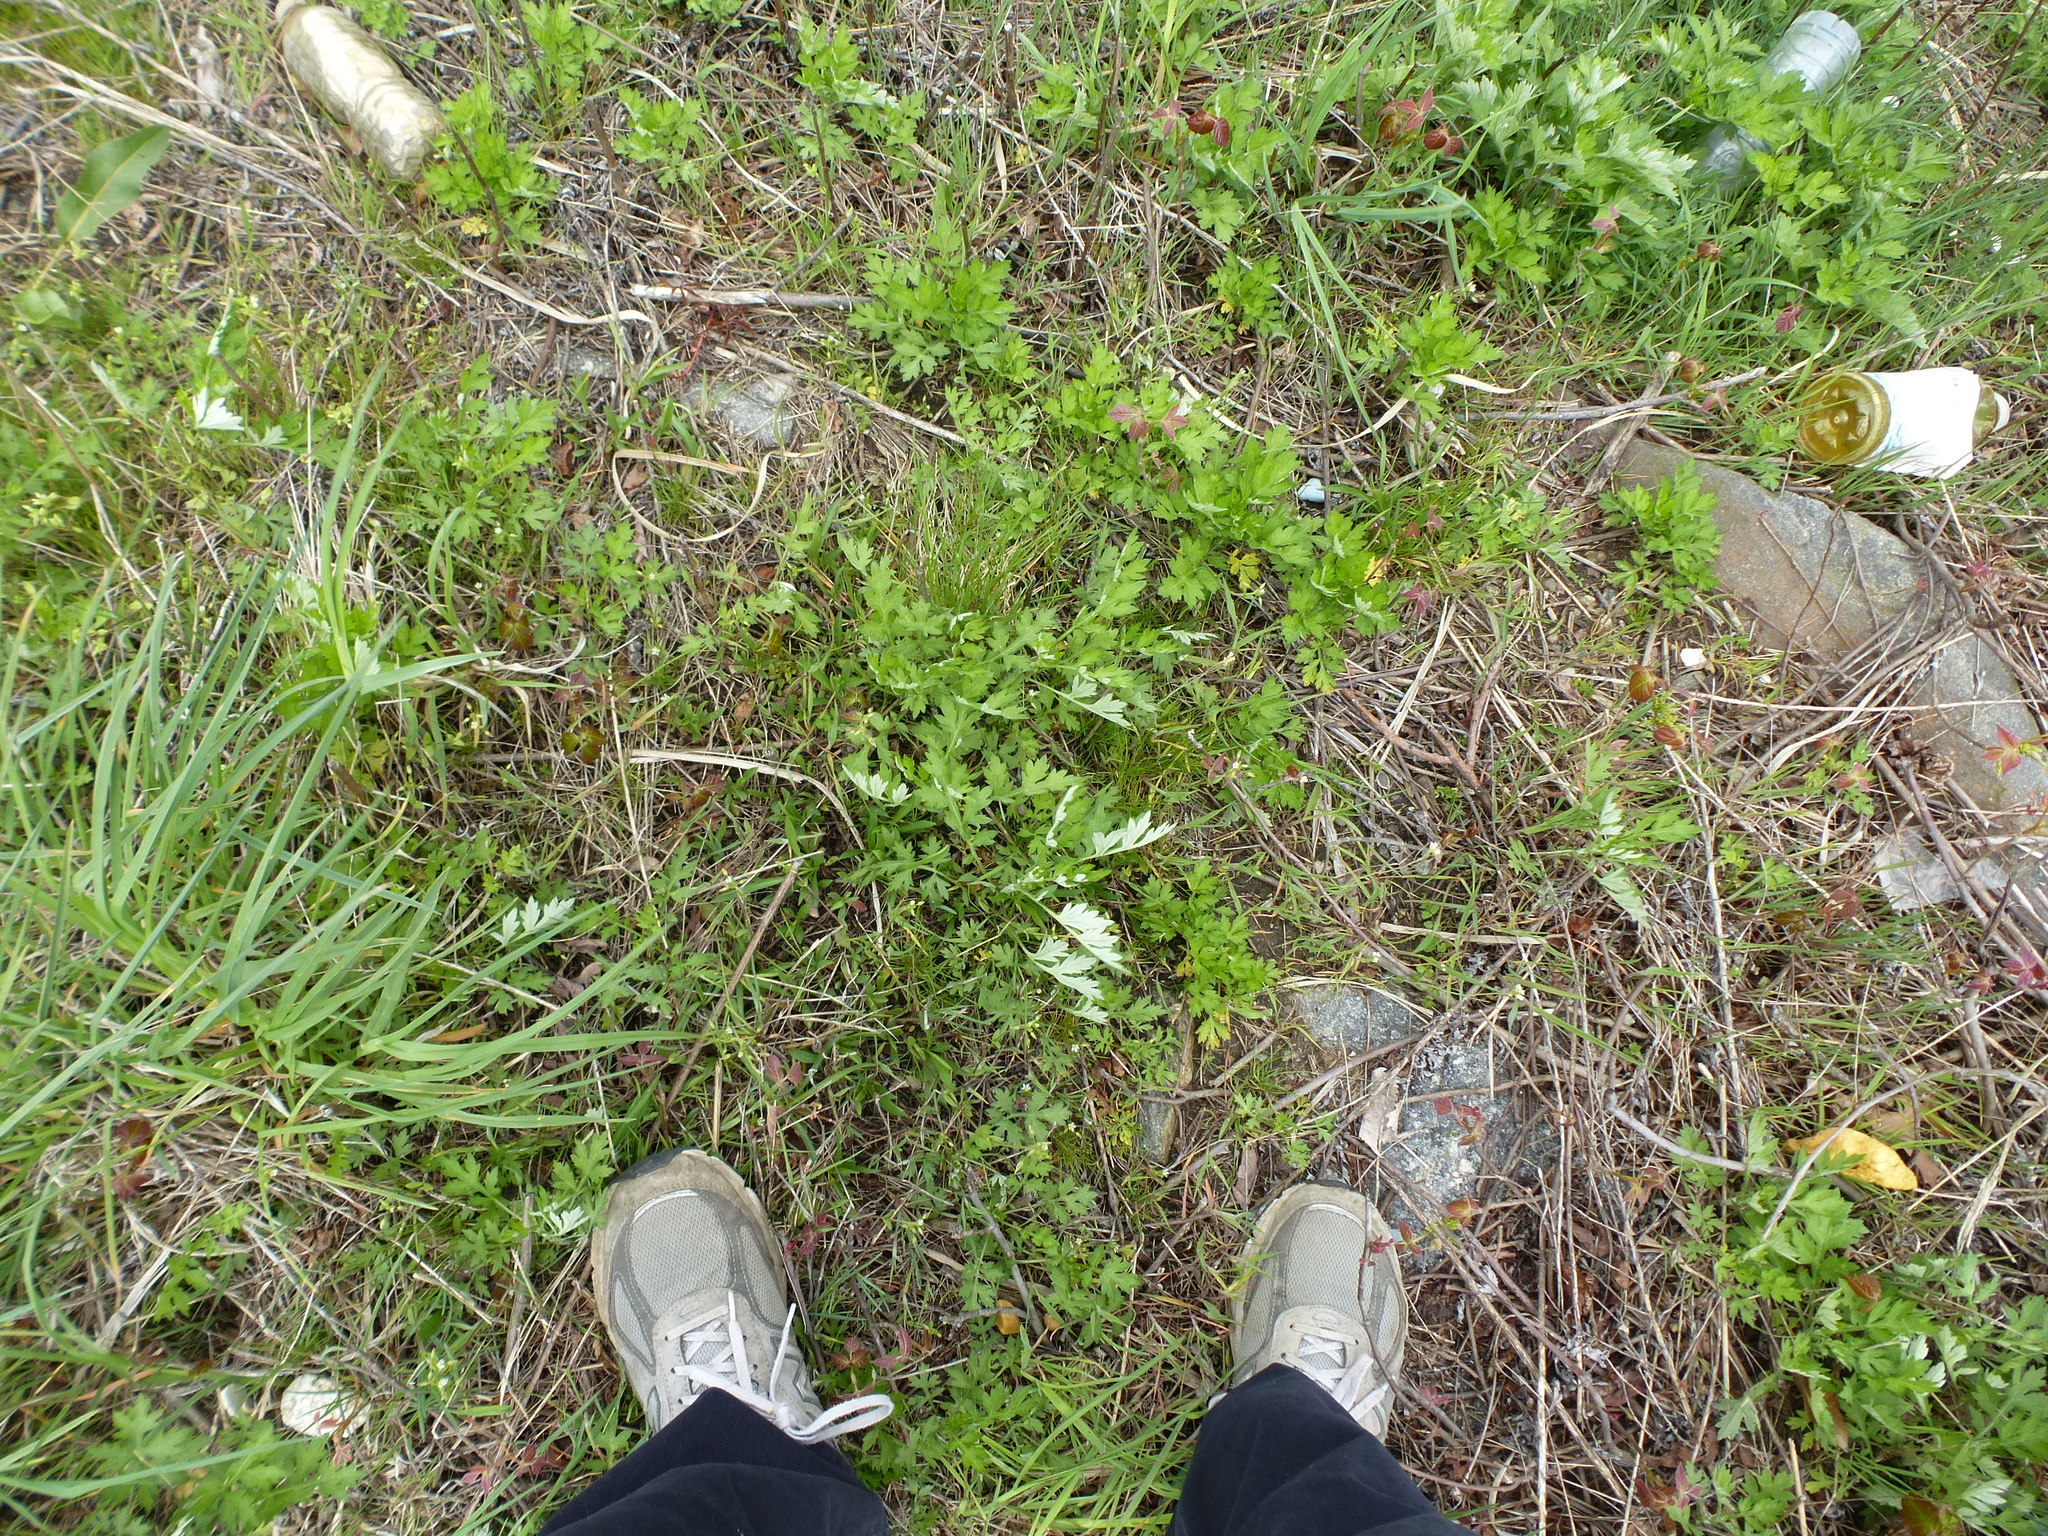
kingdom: Plantae
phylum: Tracheophyta
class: Magnoliopsida
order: Asterales
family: Asteraceae
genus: Artemisia
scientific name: Artemisia vulgaris
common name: Mugwort
